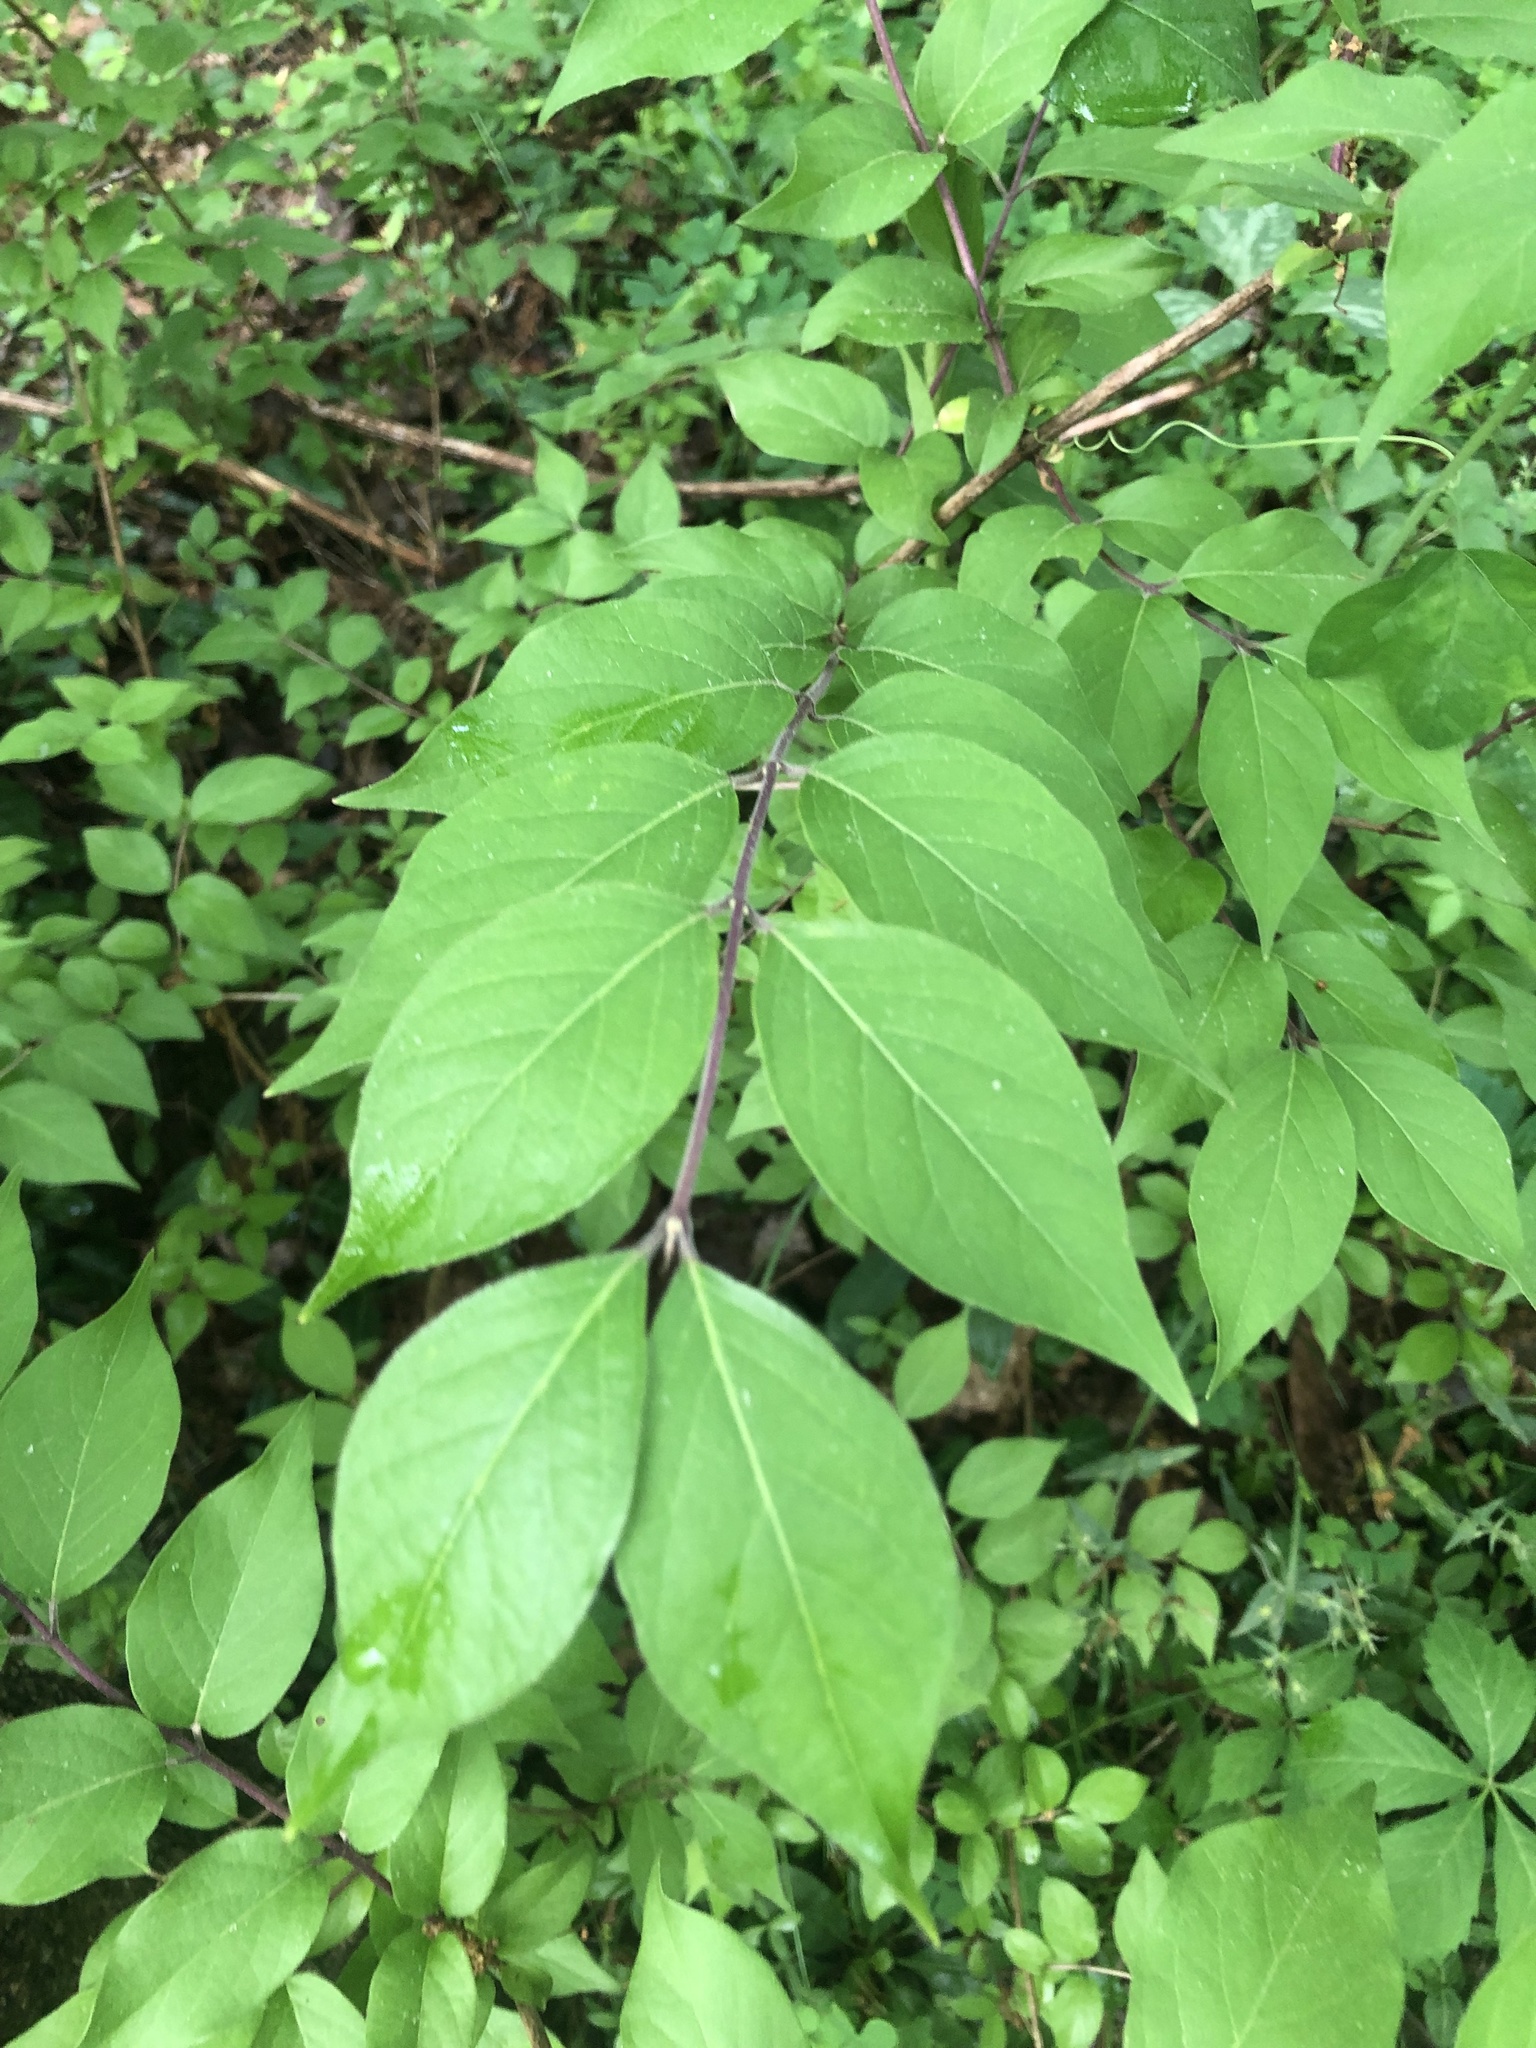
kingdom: Plantae
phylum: Tracheophyta
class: Magnoliopsida
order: Dipsacales
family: Caprifoliaceae
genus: Lonicera
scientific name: Lonicera maackii
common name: Amur honeysuckle
